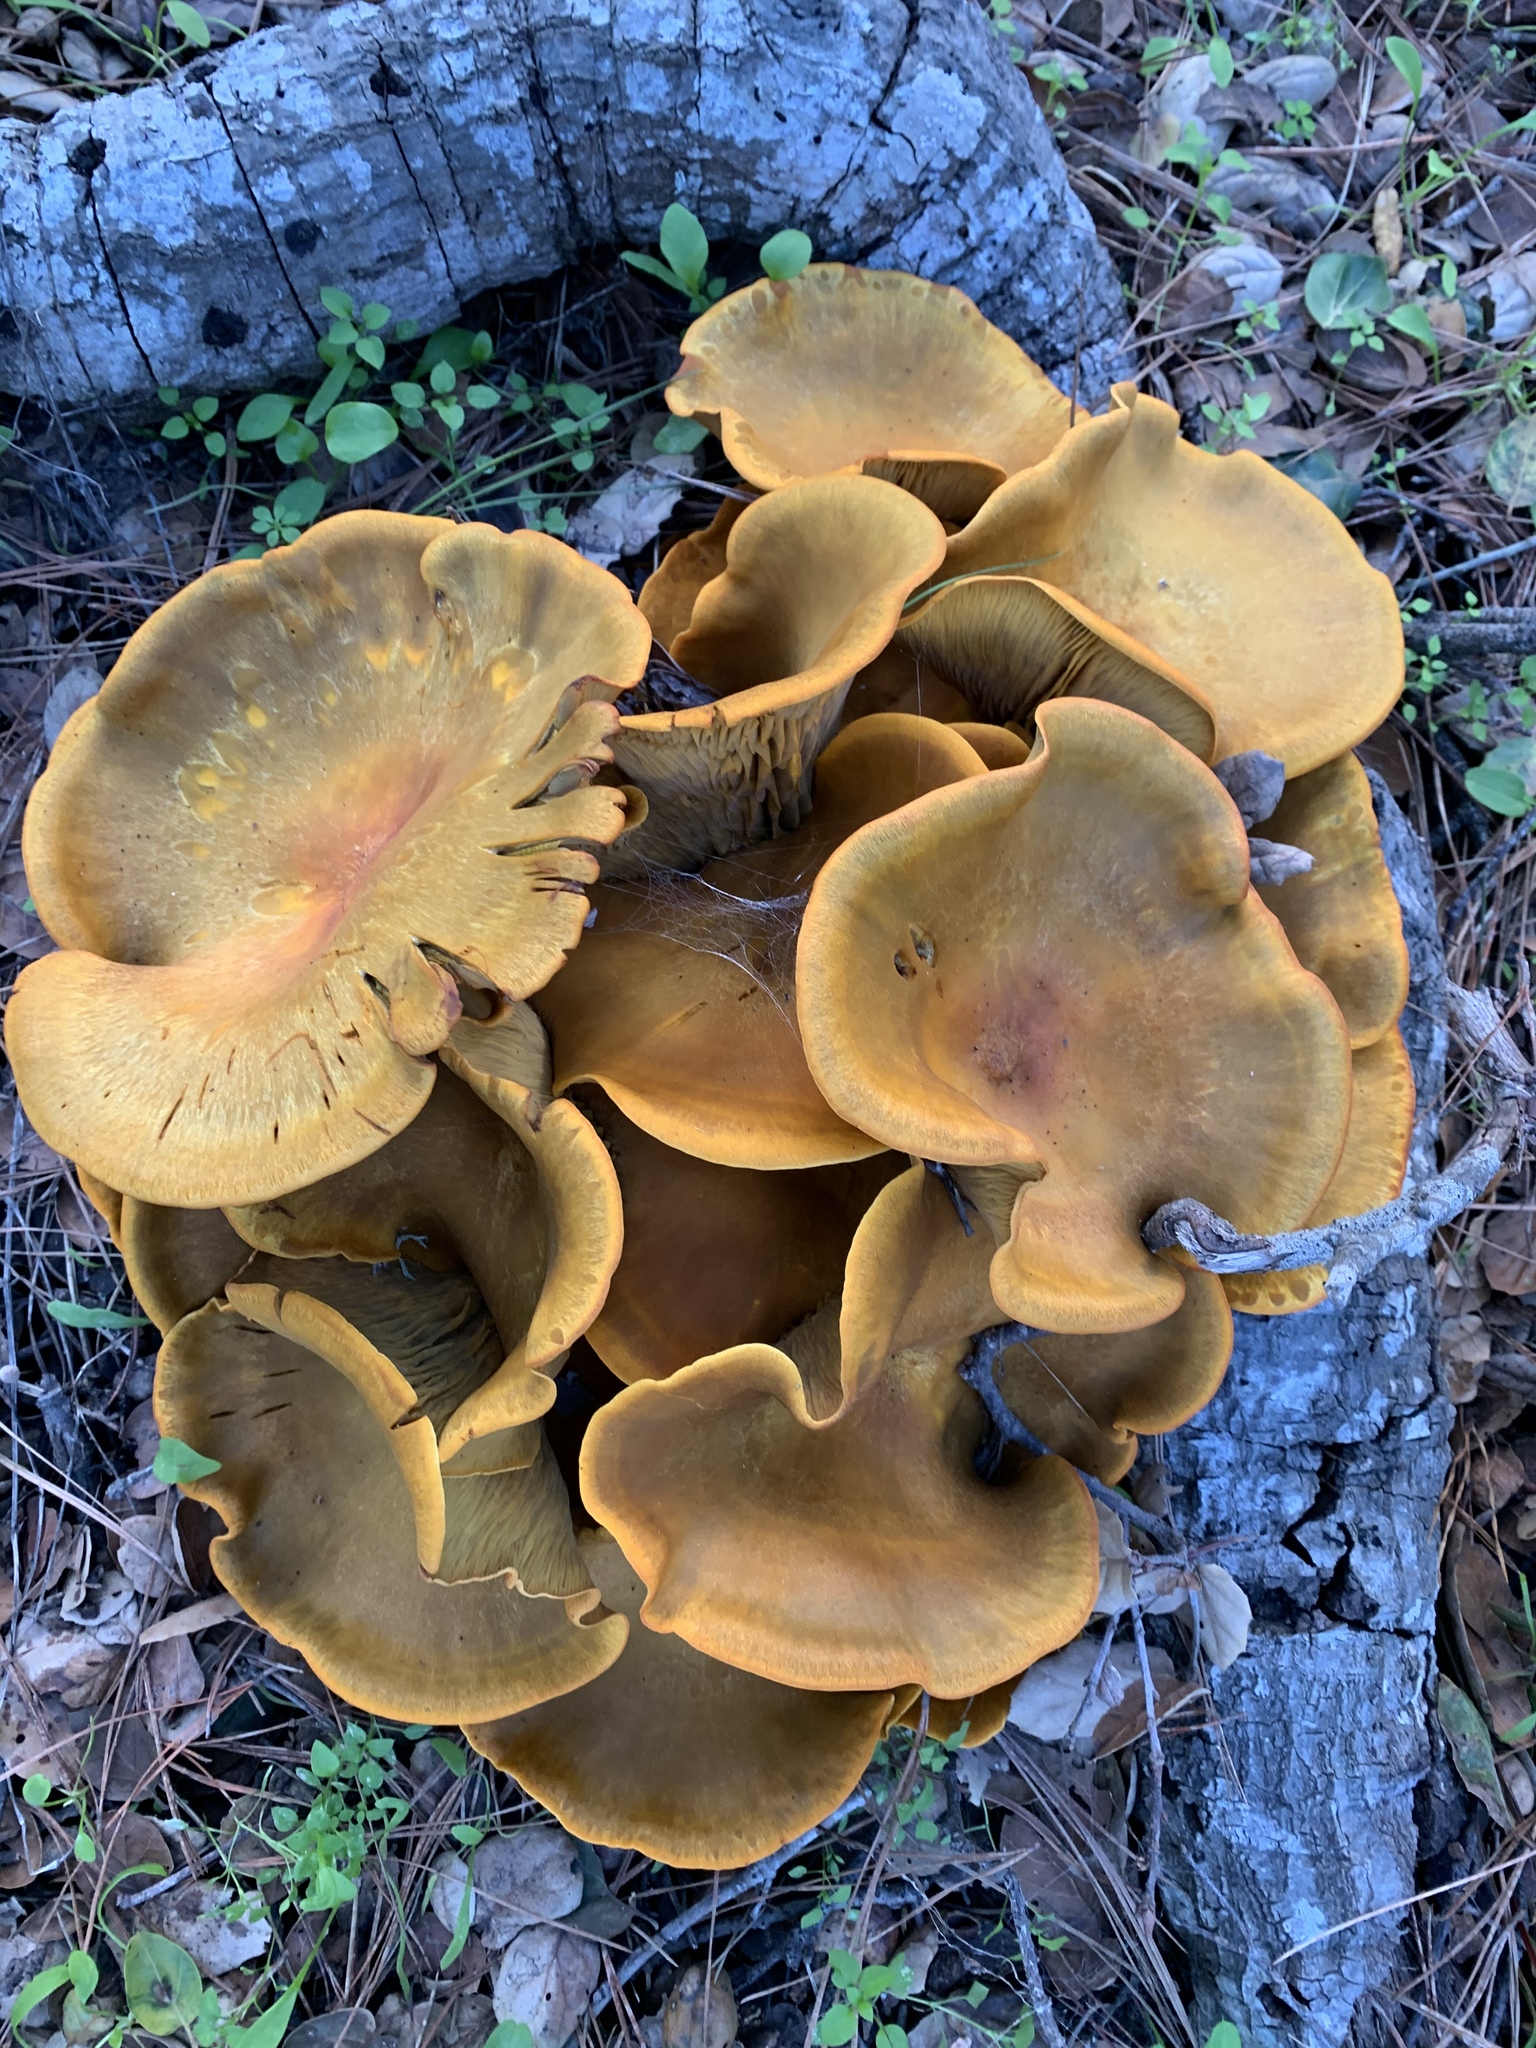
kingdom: Fungi
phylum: Basidiomycota
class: Agaricomycetes
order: Agaricales
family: Omphalotaceae
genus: Omphalotus
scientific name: Omphalotus olivascens
